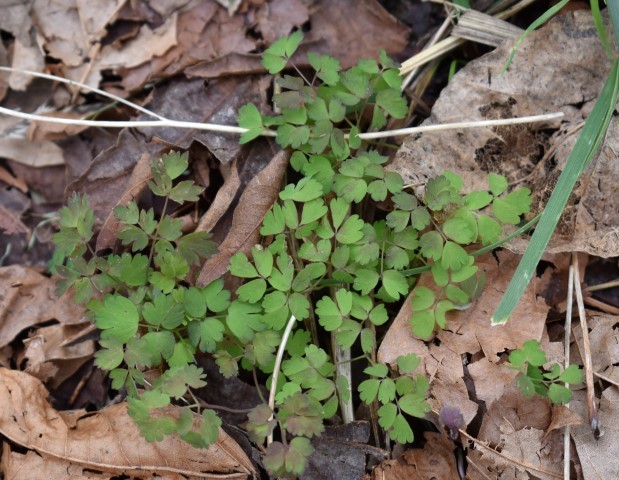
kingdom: Plantae
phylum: Tracheophyta
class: Magnoliopsida
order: Ranunculales
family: Ranunculaceae
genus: Thalictrum
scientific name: Thalictrum occidentale
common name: Western meadow-rue
